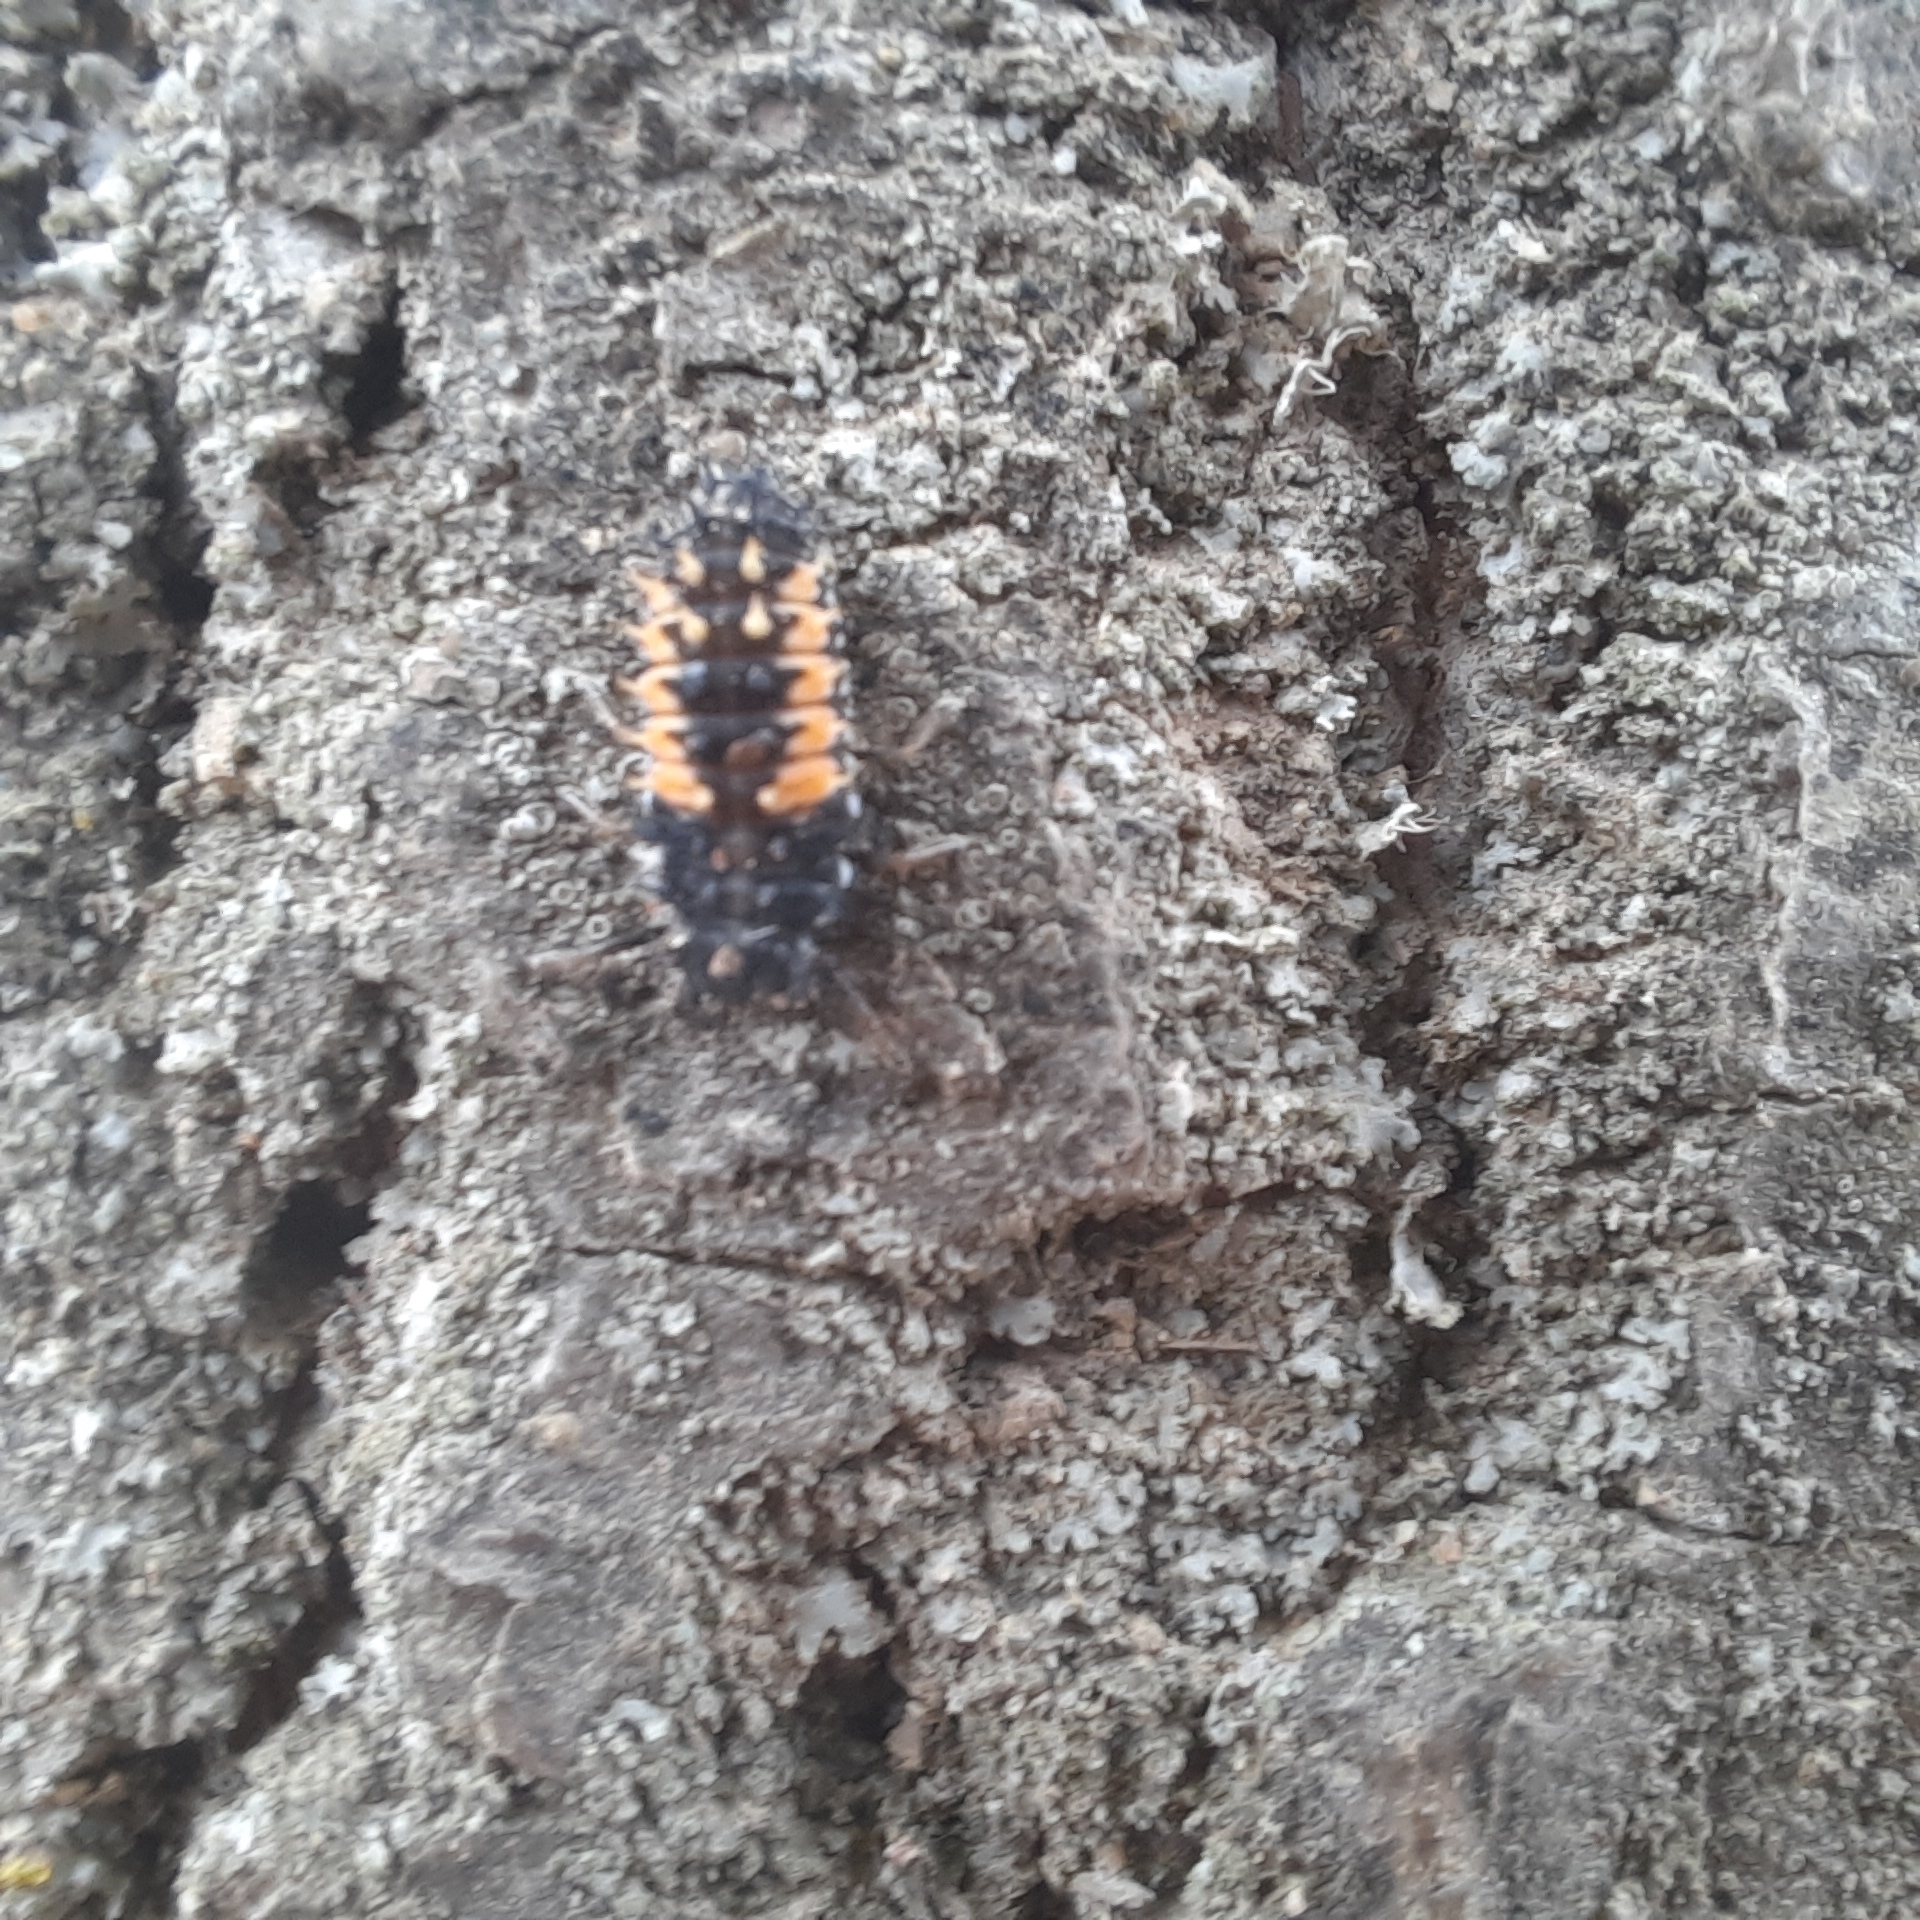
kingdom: Animalia
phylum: Arthropoda
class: Insecta
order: Coleoptera
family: Coccinellidae
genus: Harmonia
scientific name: Harmonia axyridis
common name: Harlequin ladybird
